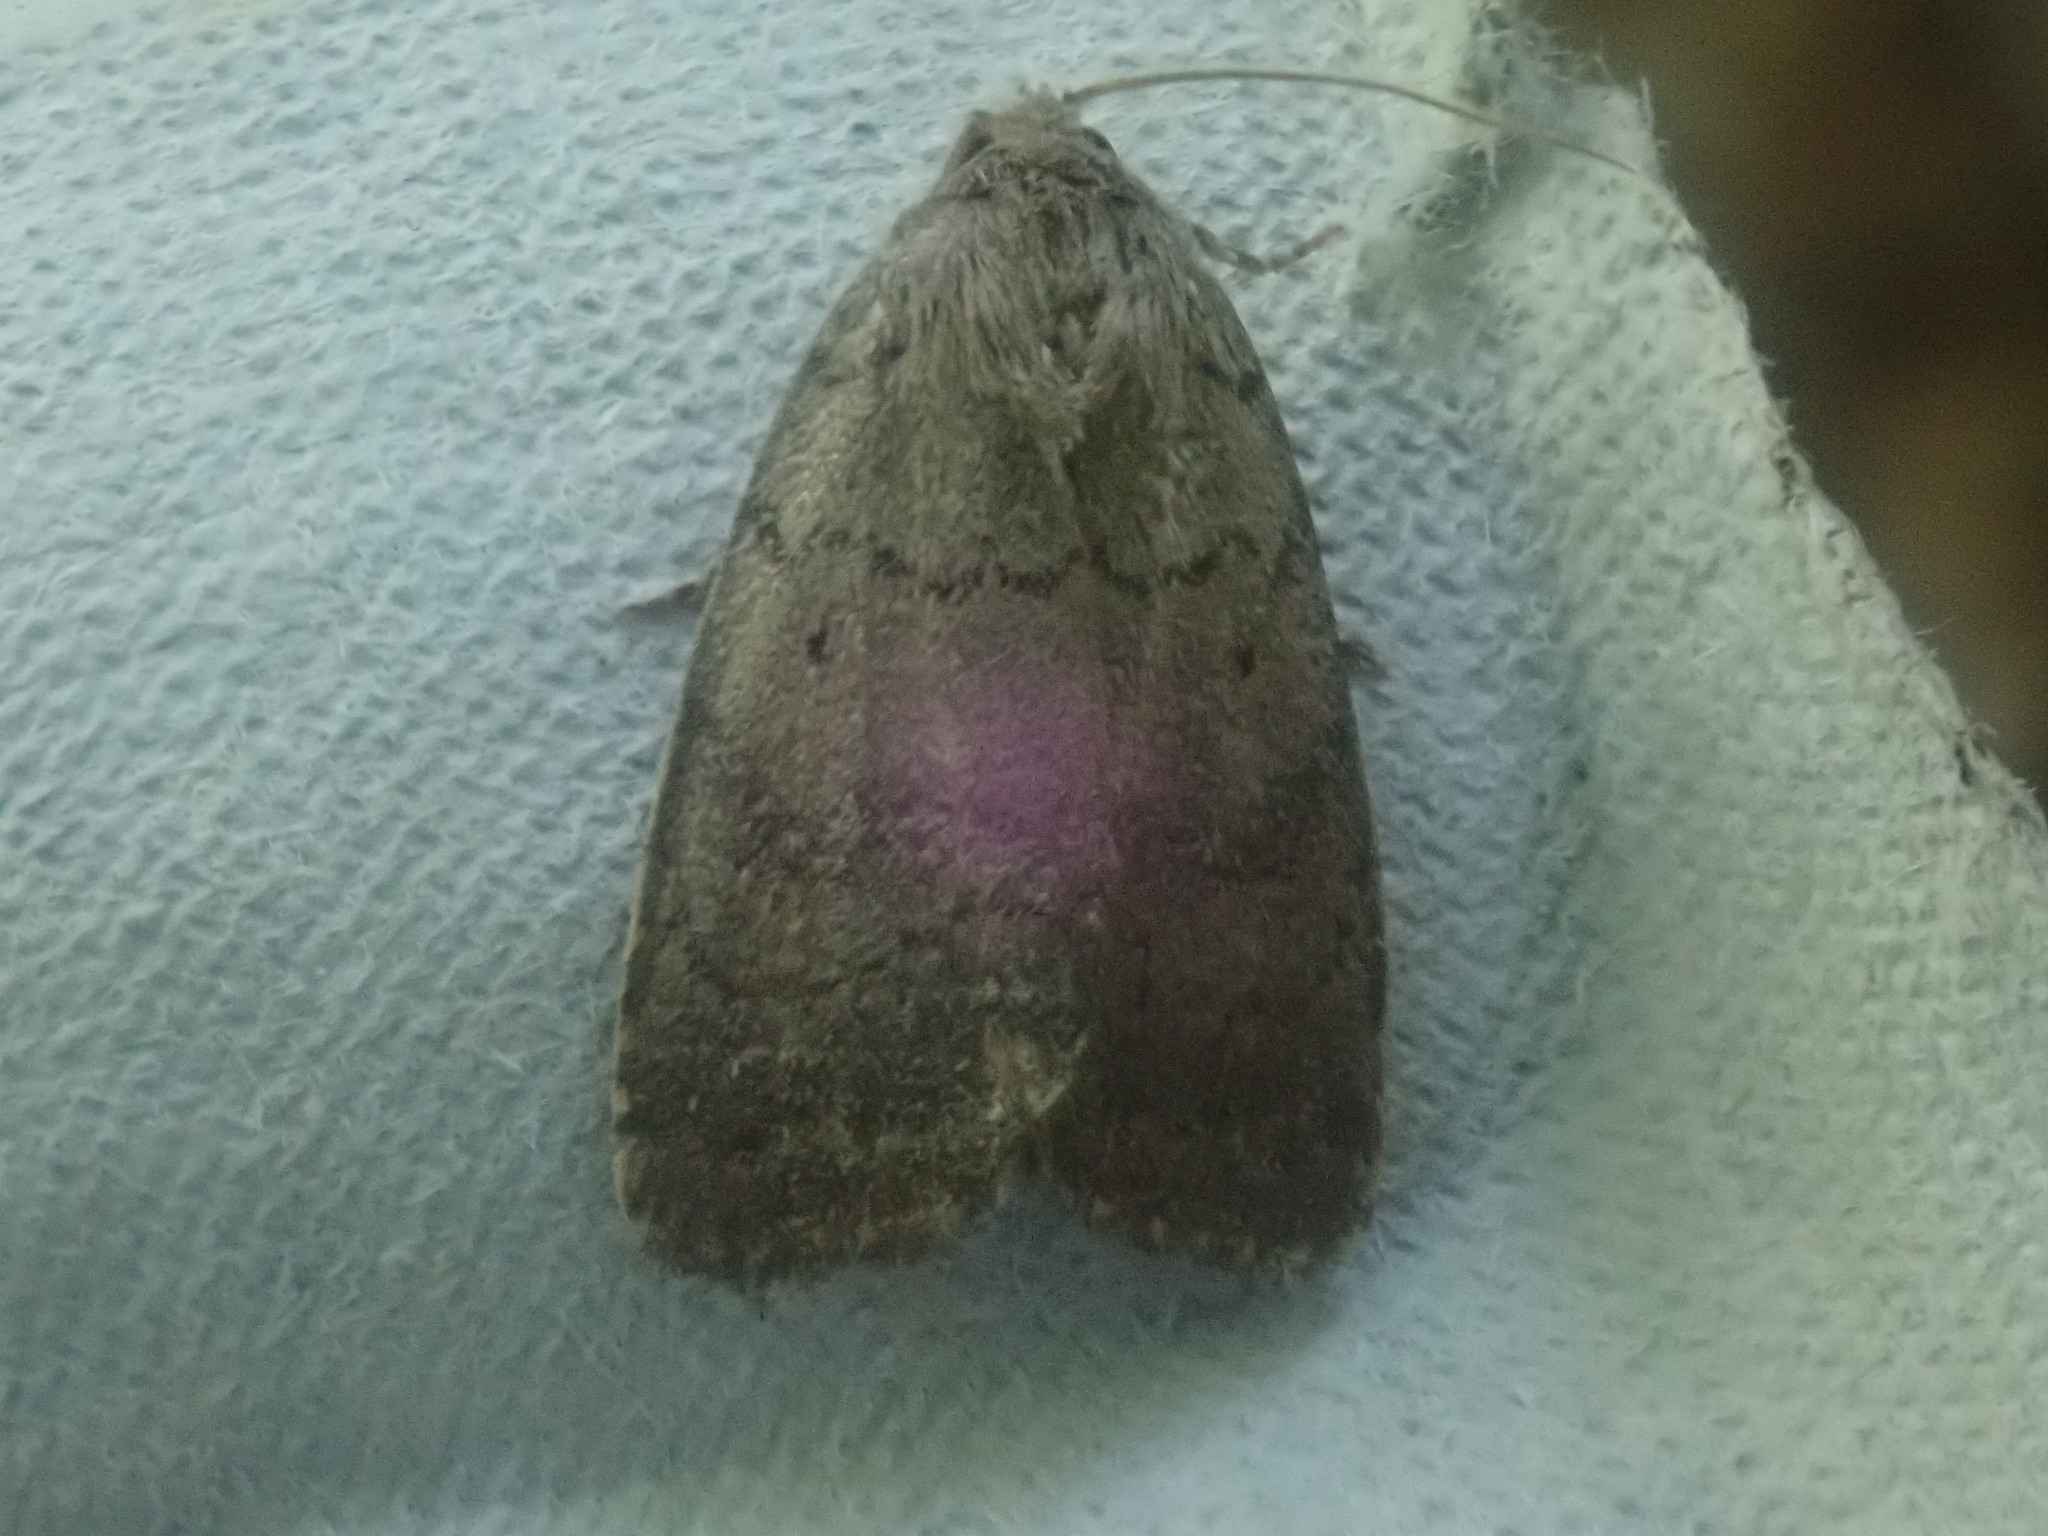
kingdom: Animalia
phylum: Arthropoda
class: Insecta
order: Lepidoptera
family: Noctuidae
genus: Athetis
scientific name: Athetis tarda
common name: Slowpoke moth
